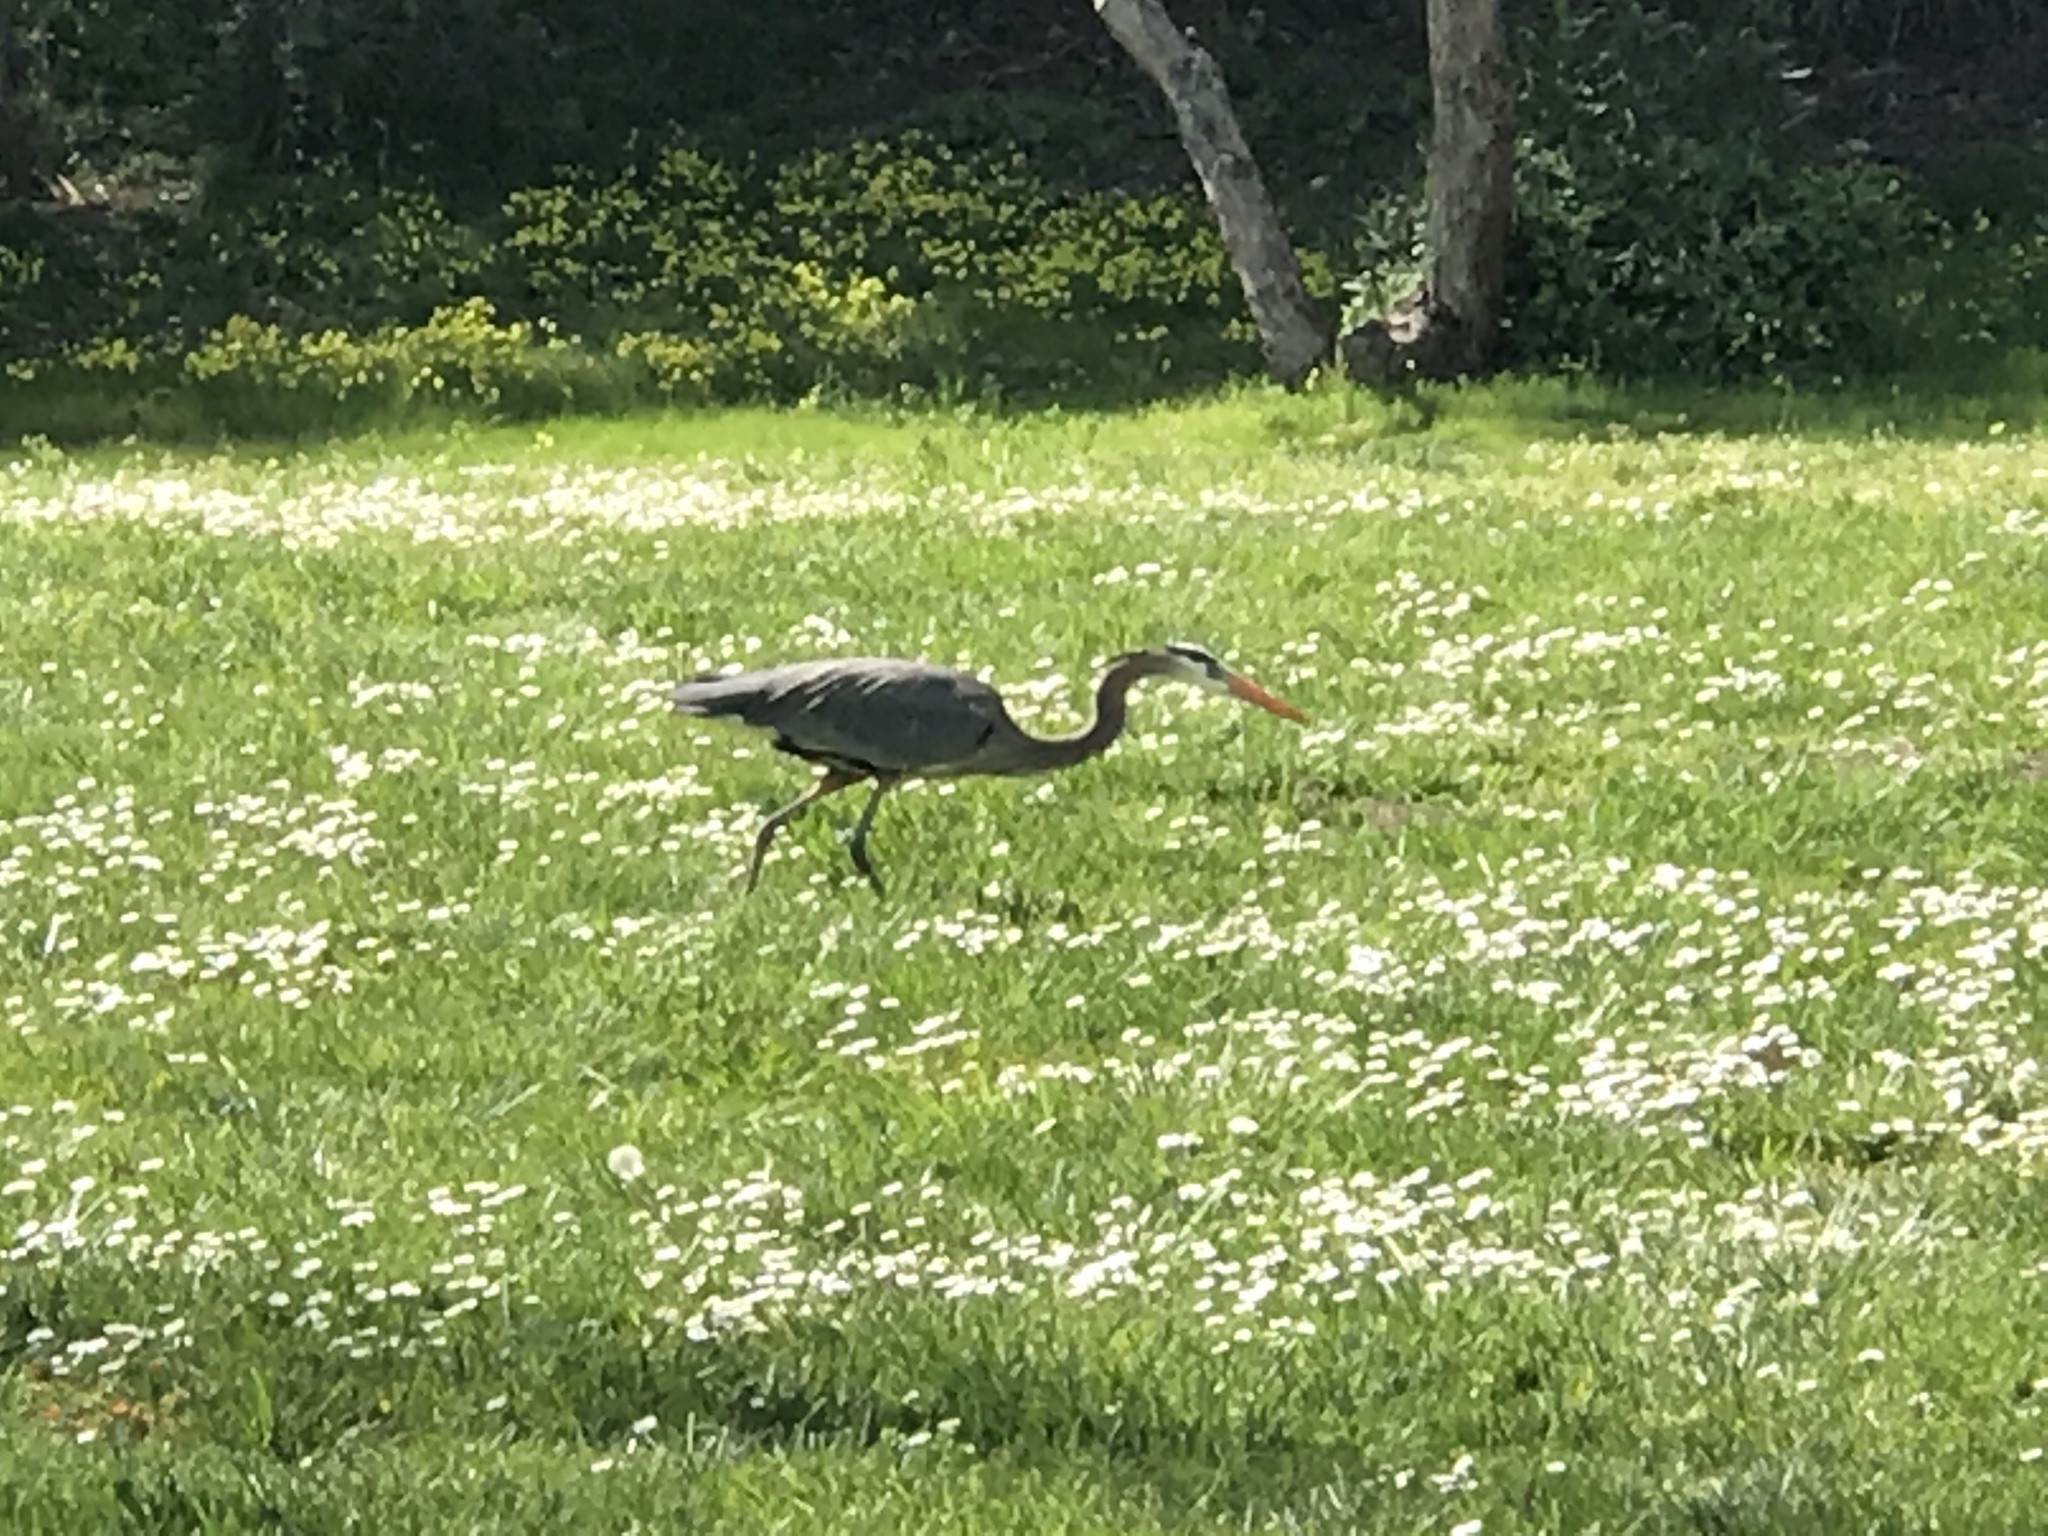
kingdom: Animalia
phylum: Chordata
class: Aves
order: Pelecaniformes
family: Ardeidae
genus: Ardea
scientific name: Ardea herodias
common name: Great blue heron
